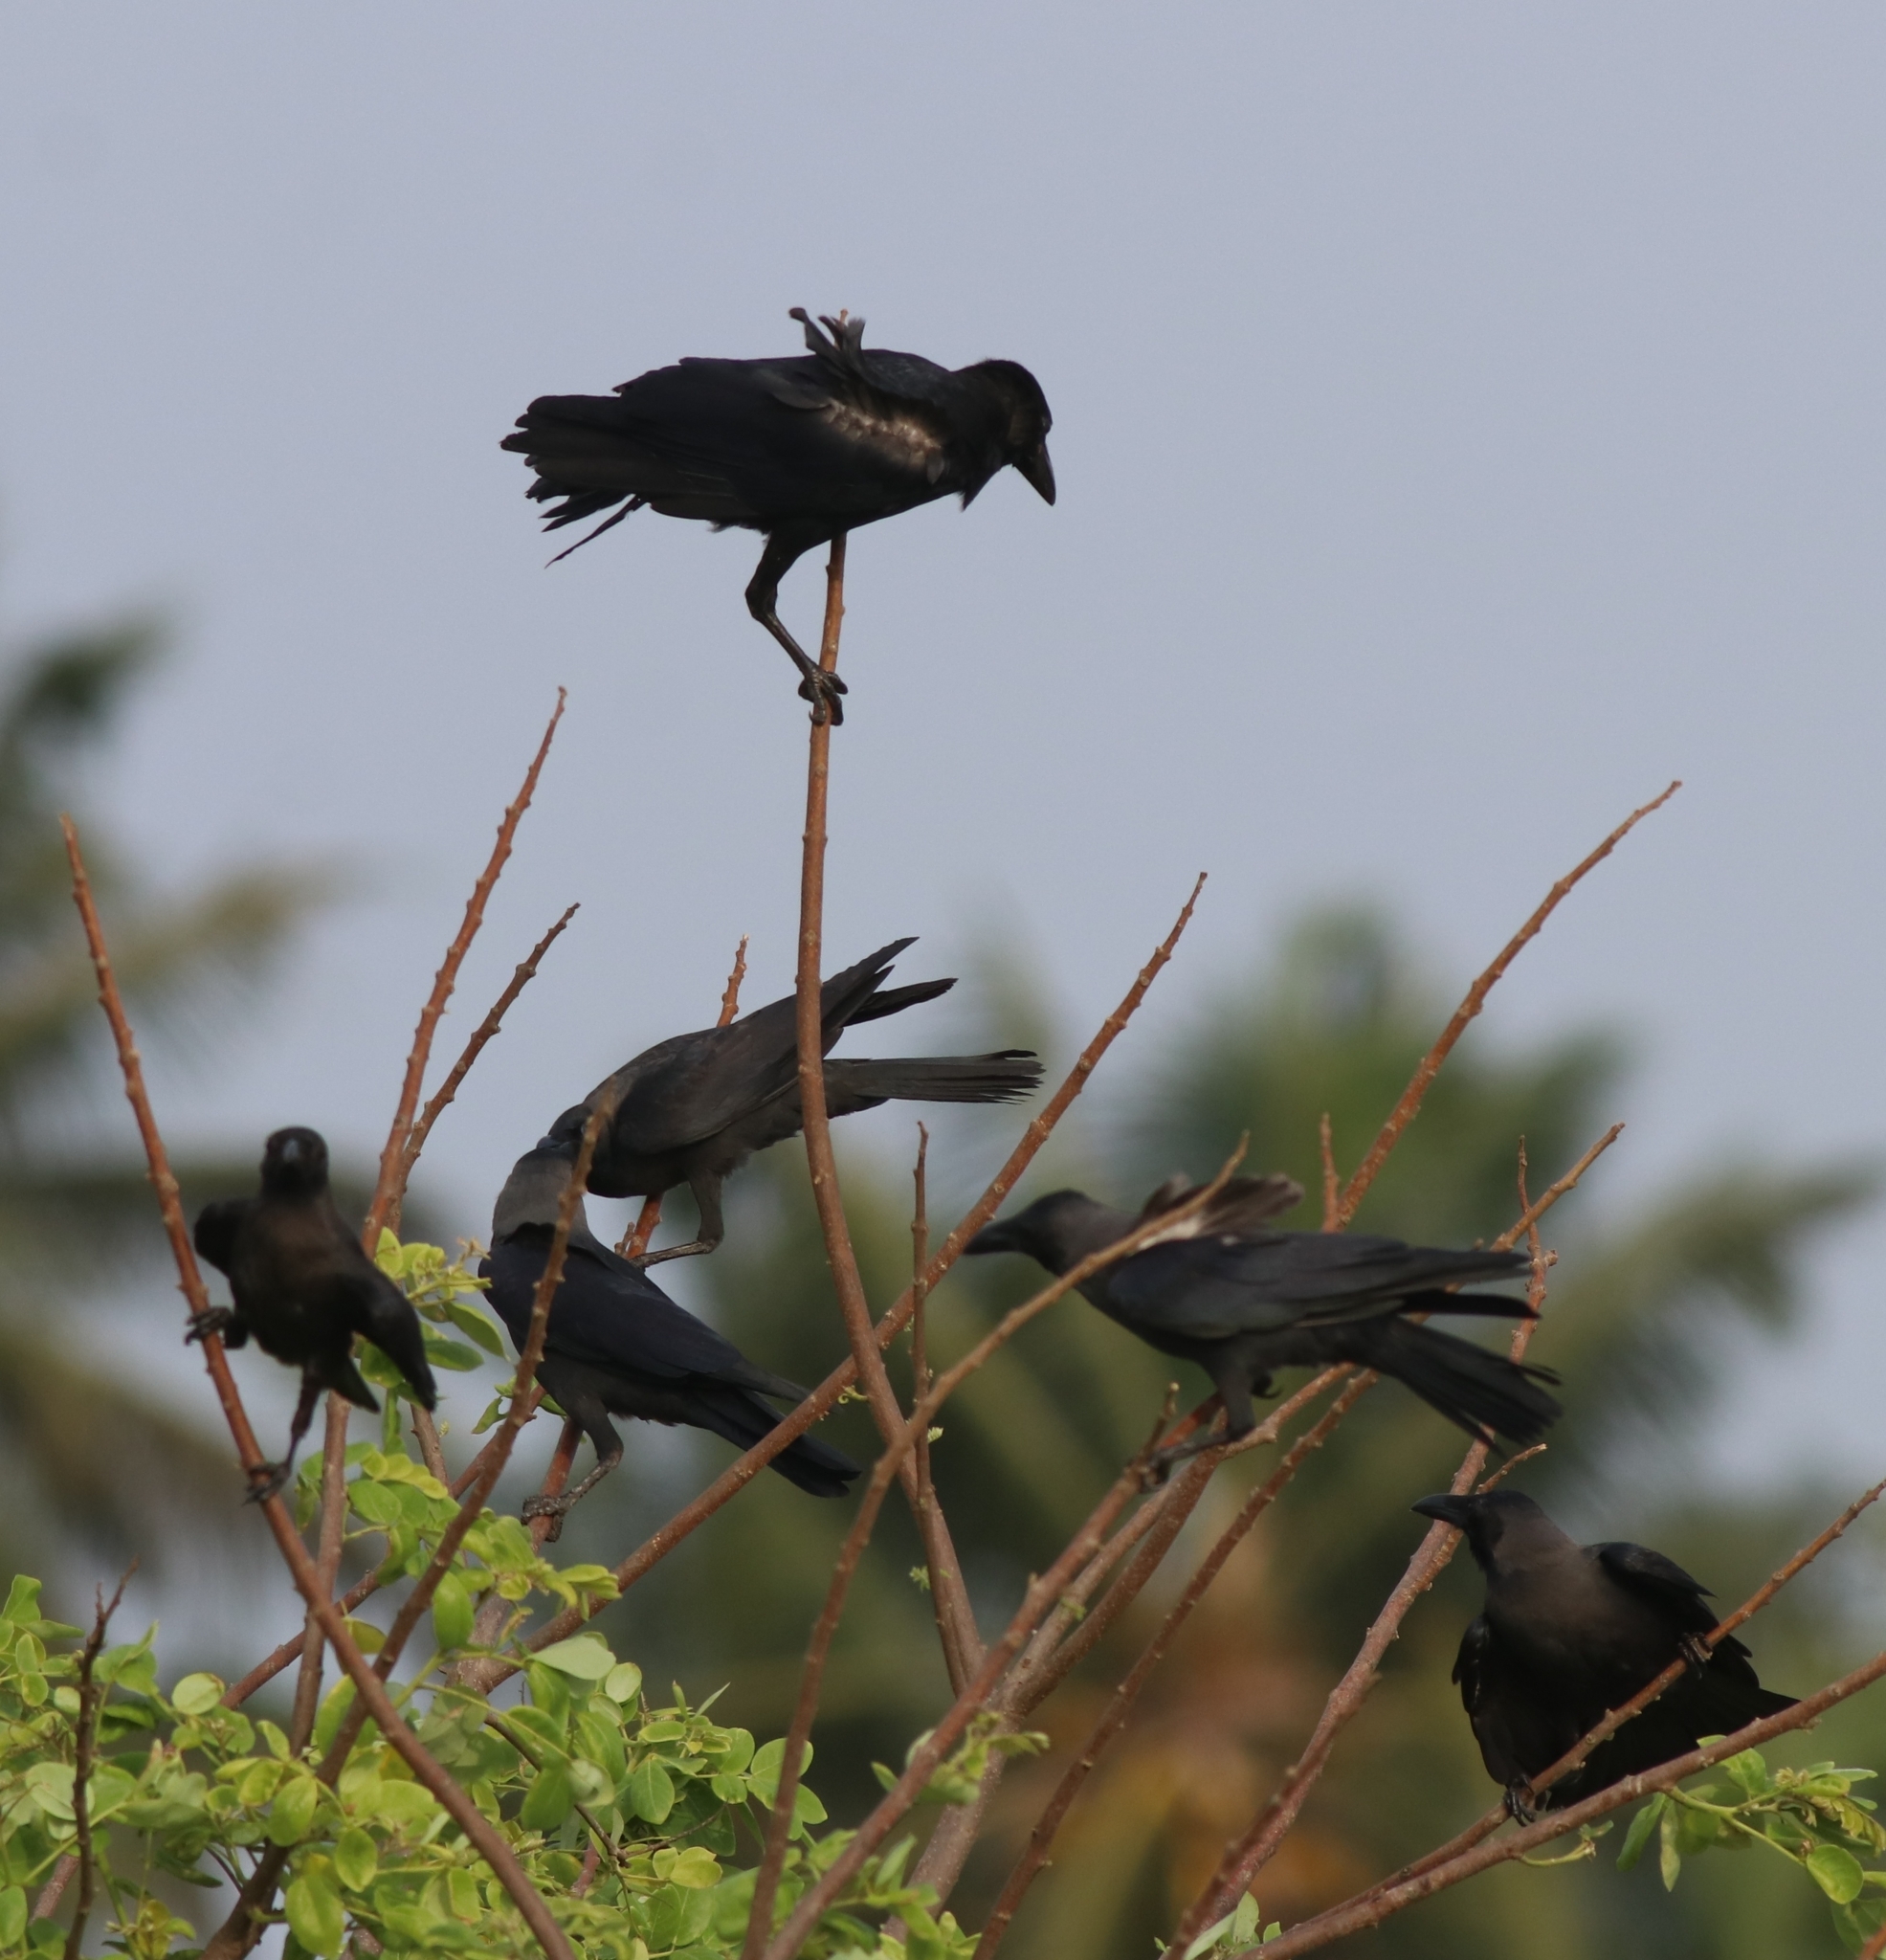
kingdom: Animalia
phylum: Chordata
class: Aves
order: Passeriformes
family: Corvidae
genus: Corvus
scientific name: Corvus macrorhynchos
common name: Large-billed crow
